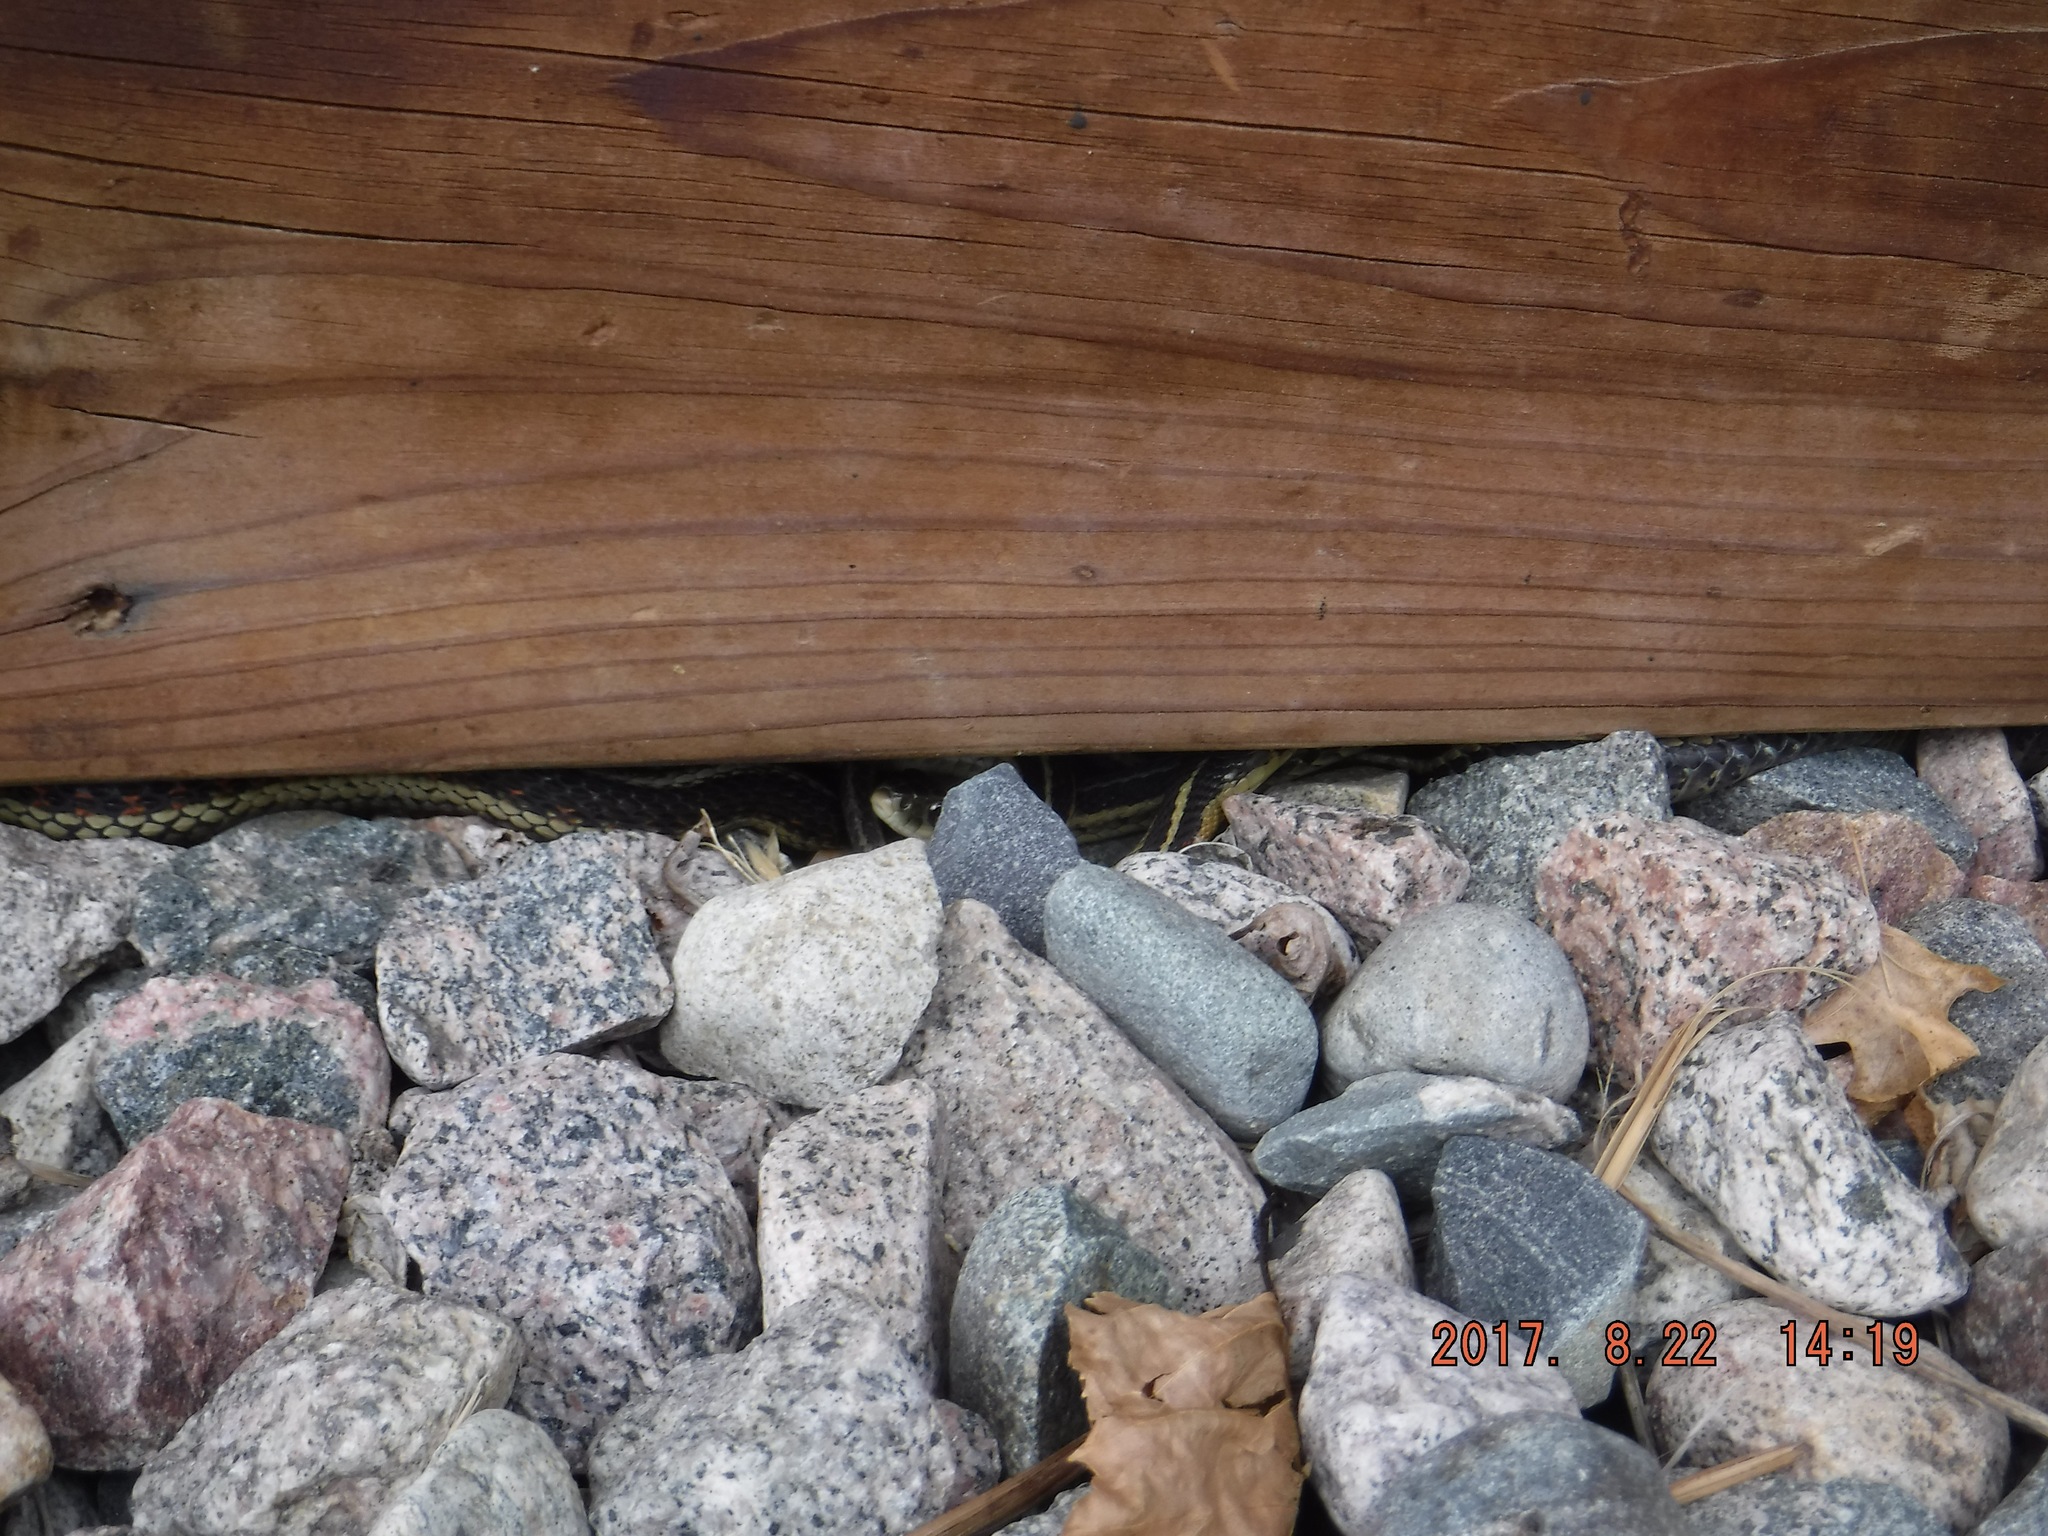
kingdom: Animalia
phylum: Chordata
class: Squamata
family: Colubridae
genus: Thamnophis
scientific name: Thamnophis sirtalis
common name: Common garter snake
